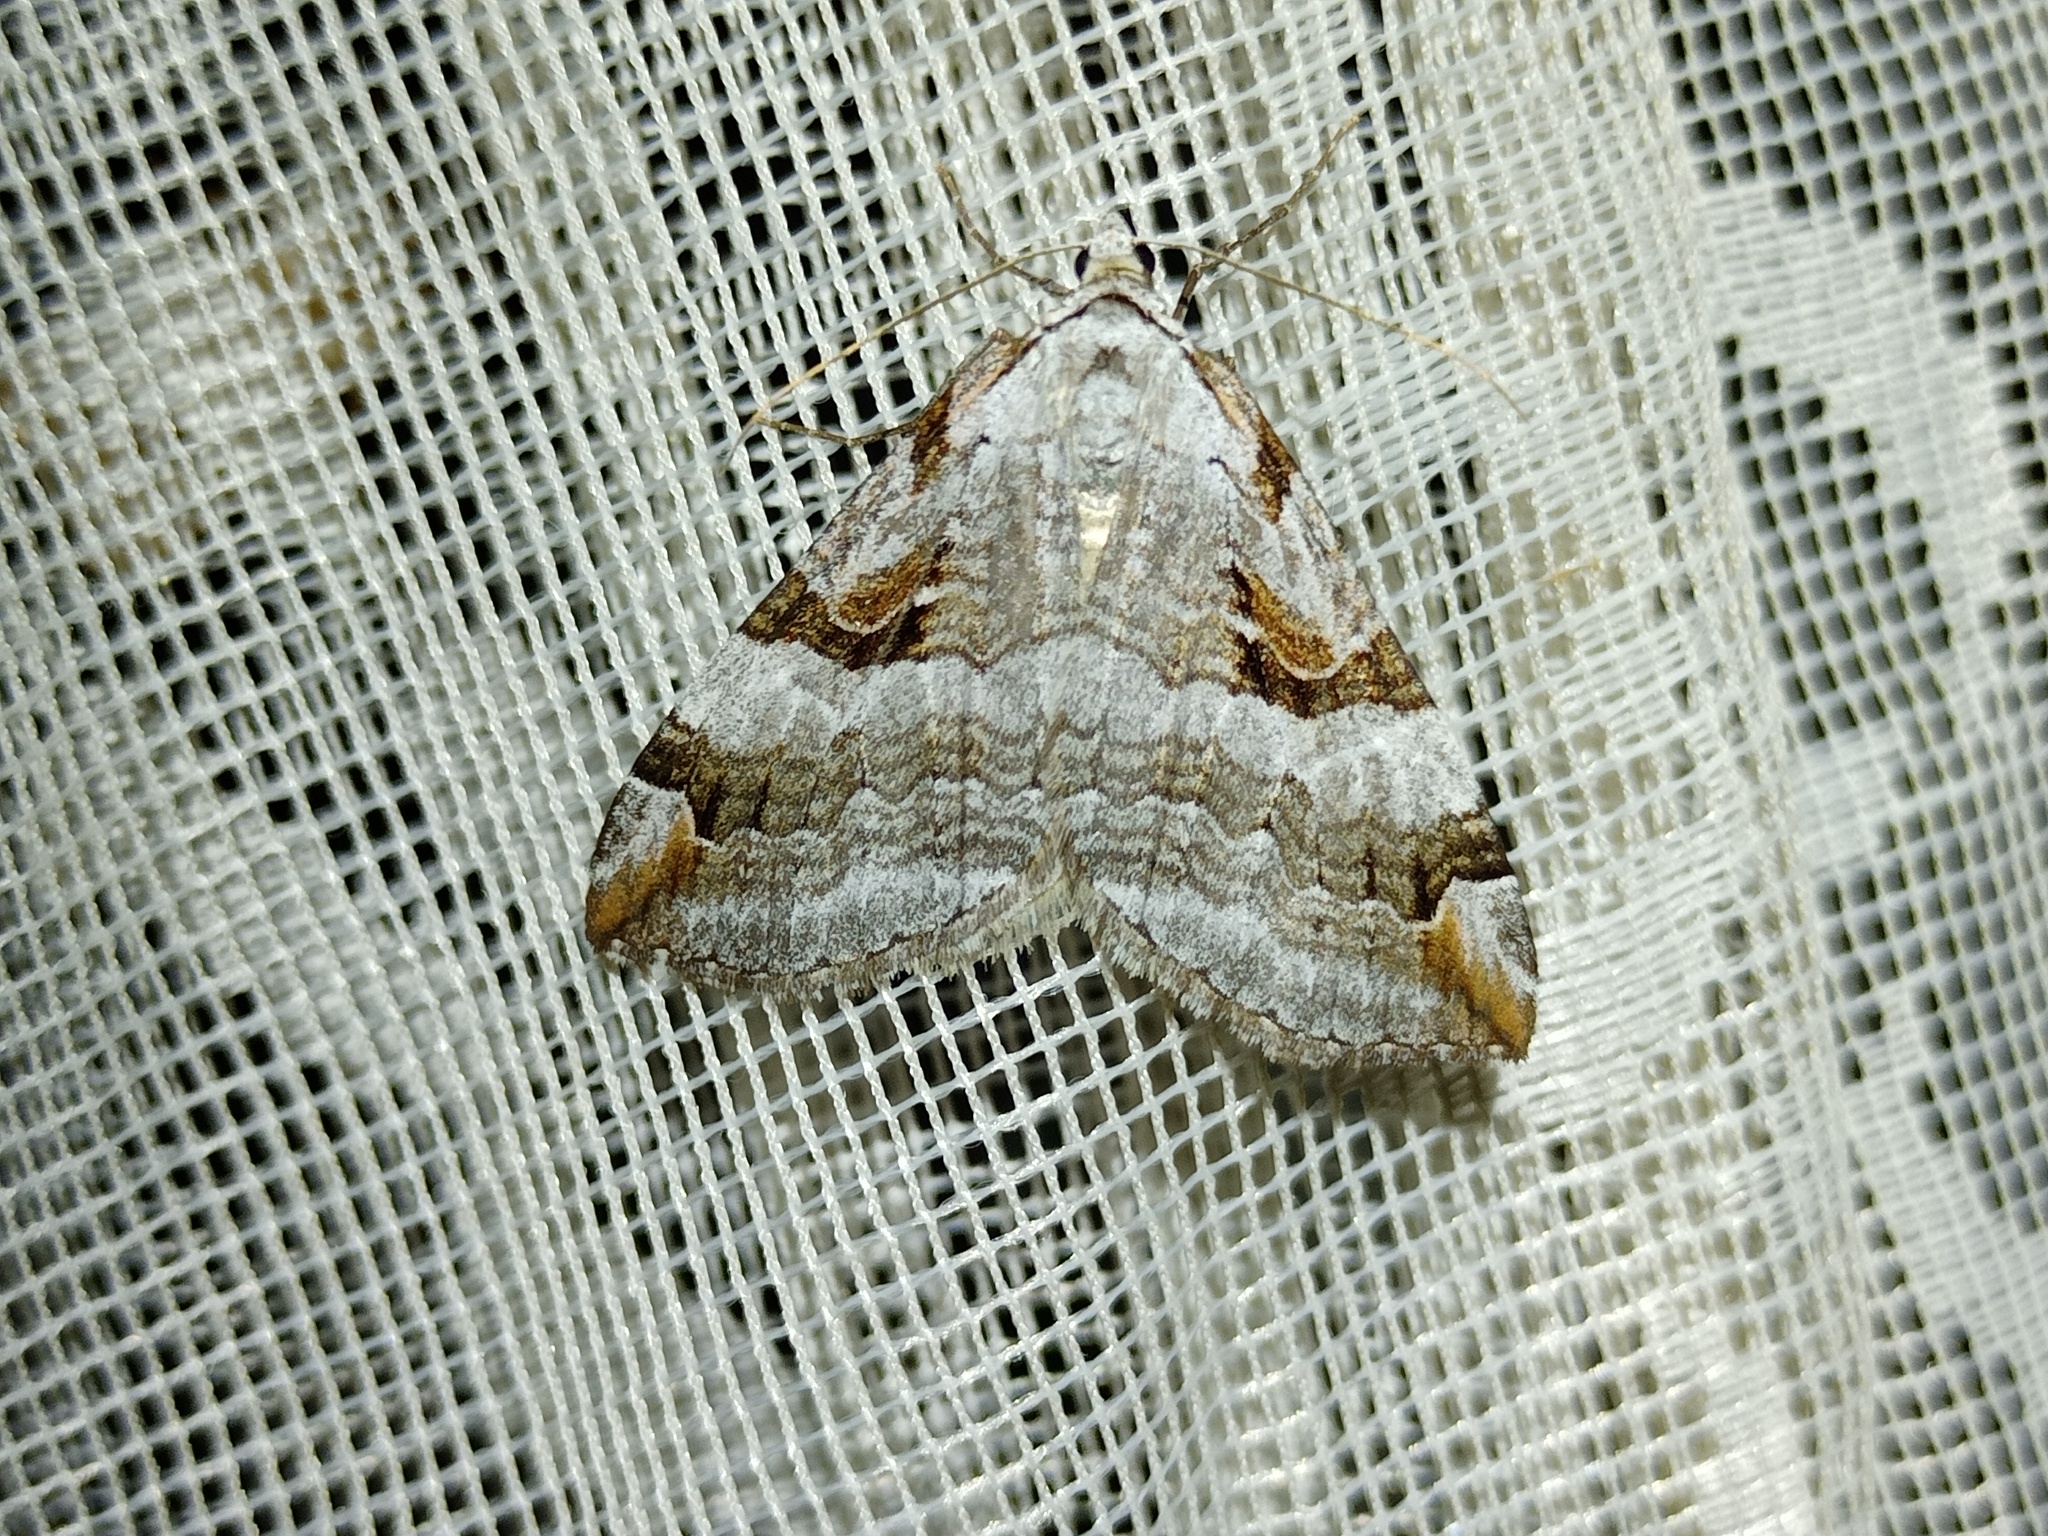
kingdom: Animalia
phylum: Arthropoda
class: Insecta
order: Lepidoptera
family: Geometridae
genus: Aplocera
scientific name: Aplocera praeformata
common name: Purple treble-bar
